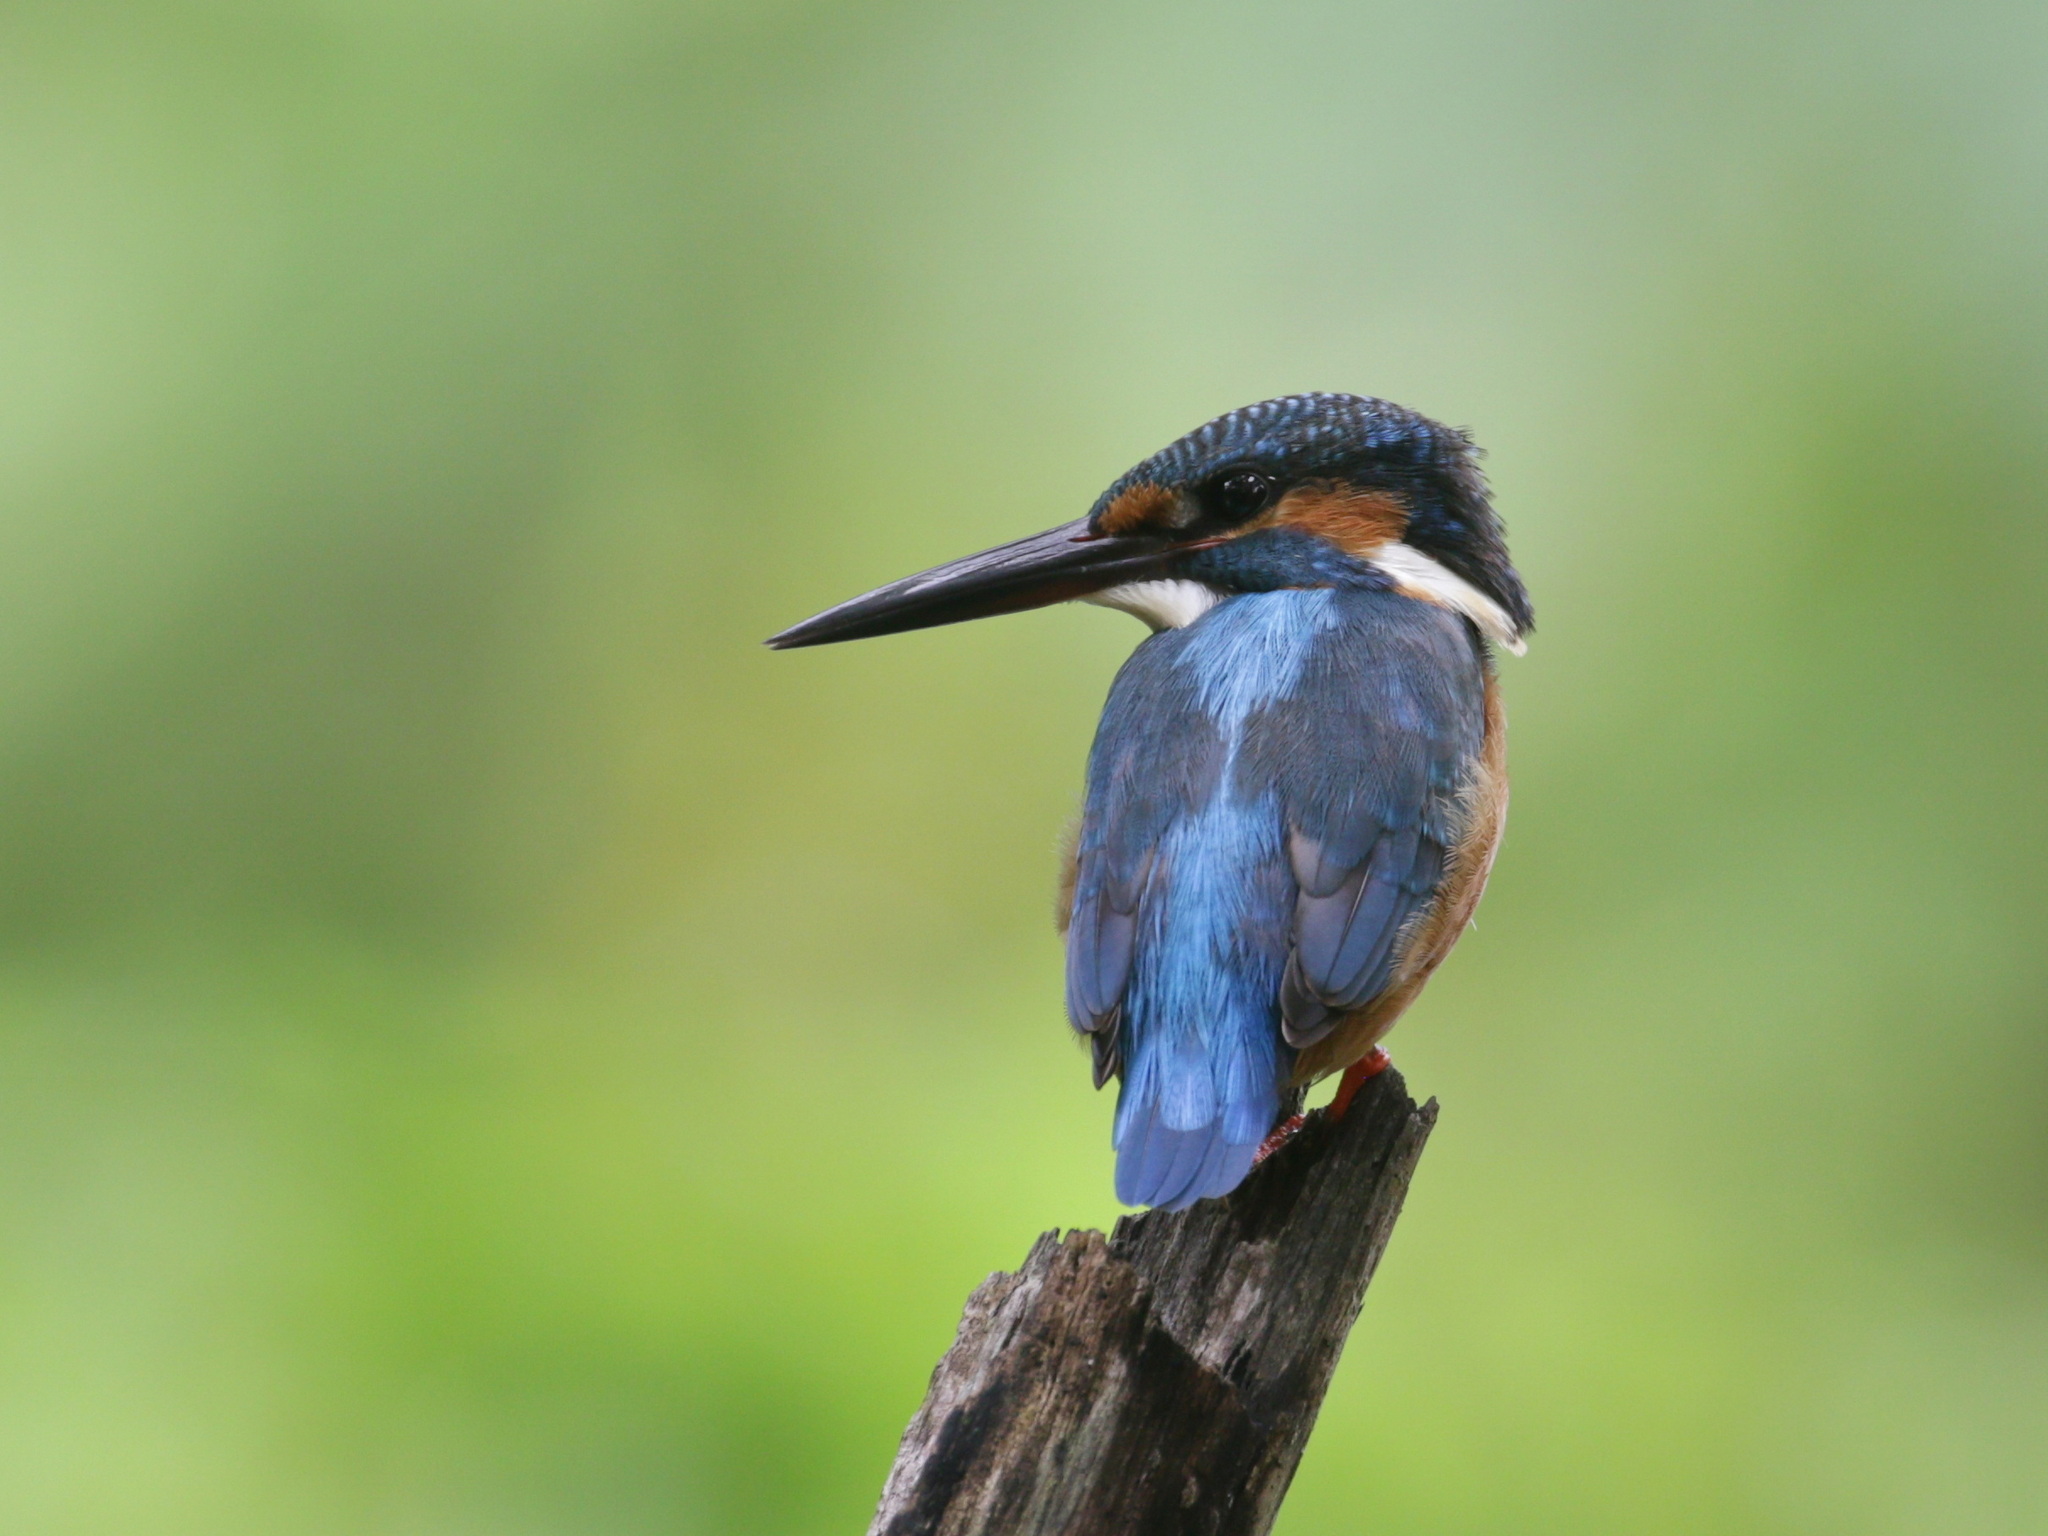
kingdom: Animalia
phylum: Chordata
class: Aves
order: Coraciiformes
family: Alcedinidae
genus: Alcedo
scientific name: Alcedo atthis
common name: Common kingfisher
